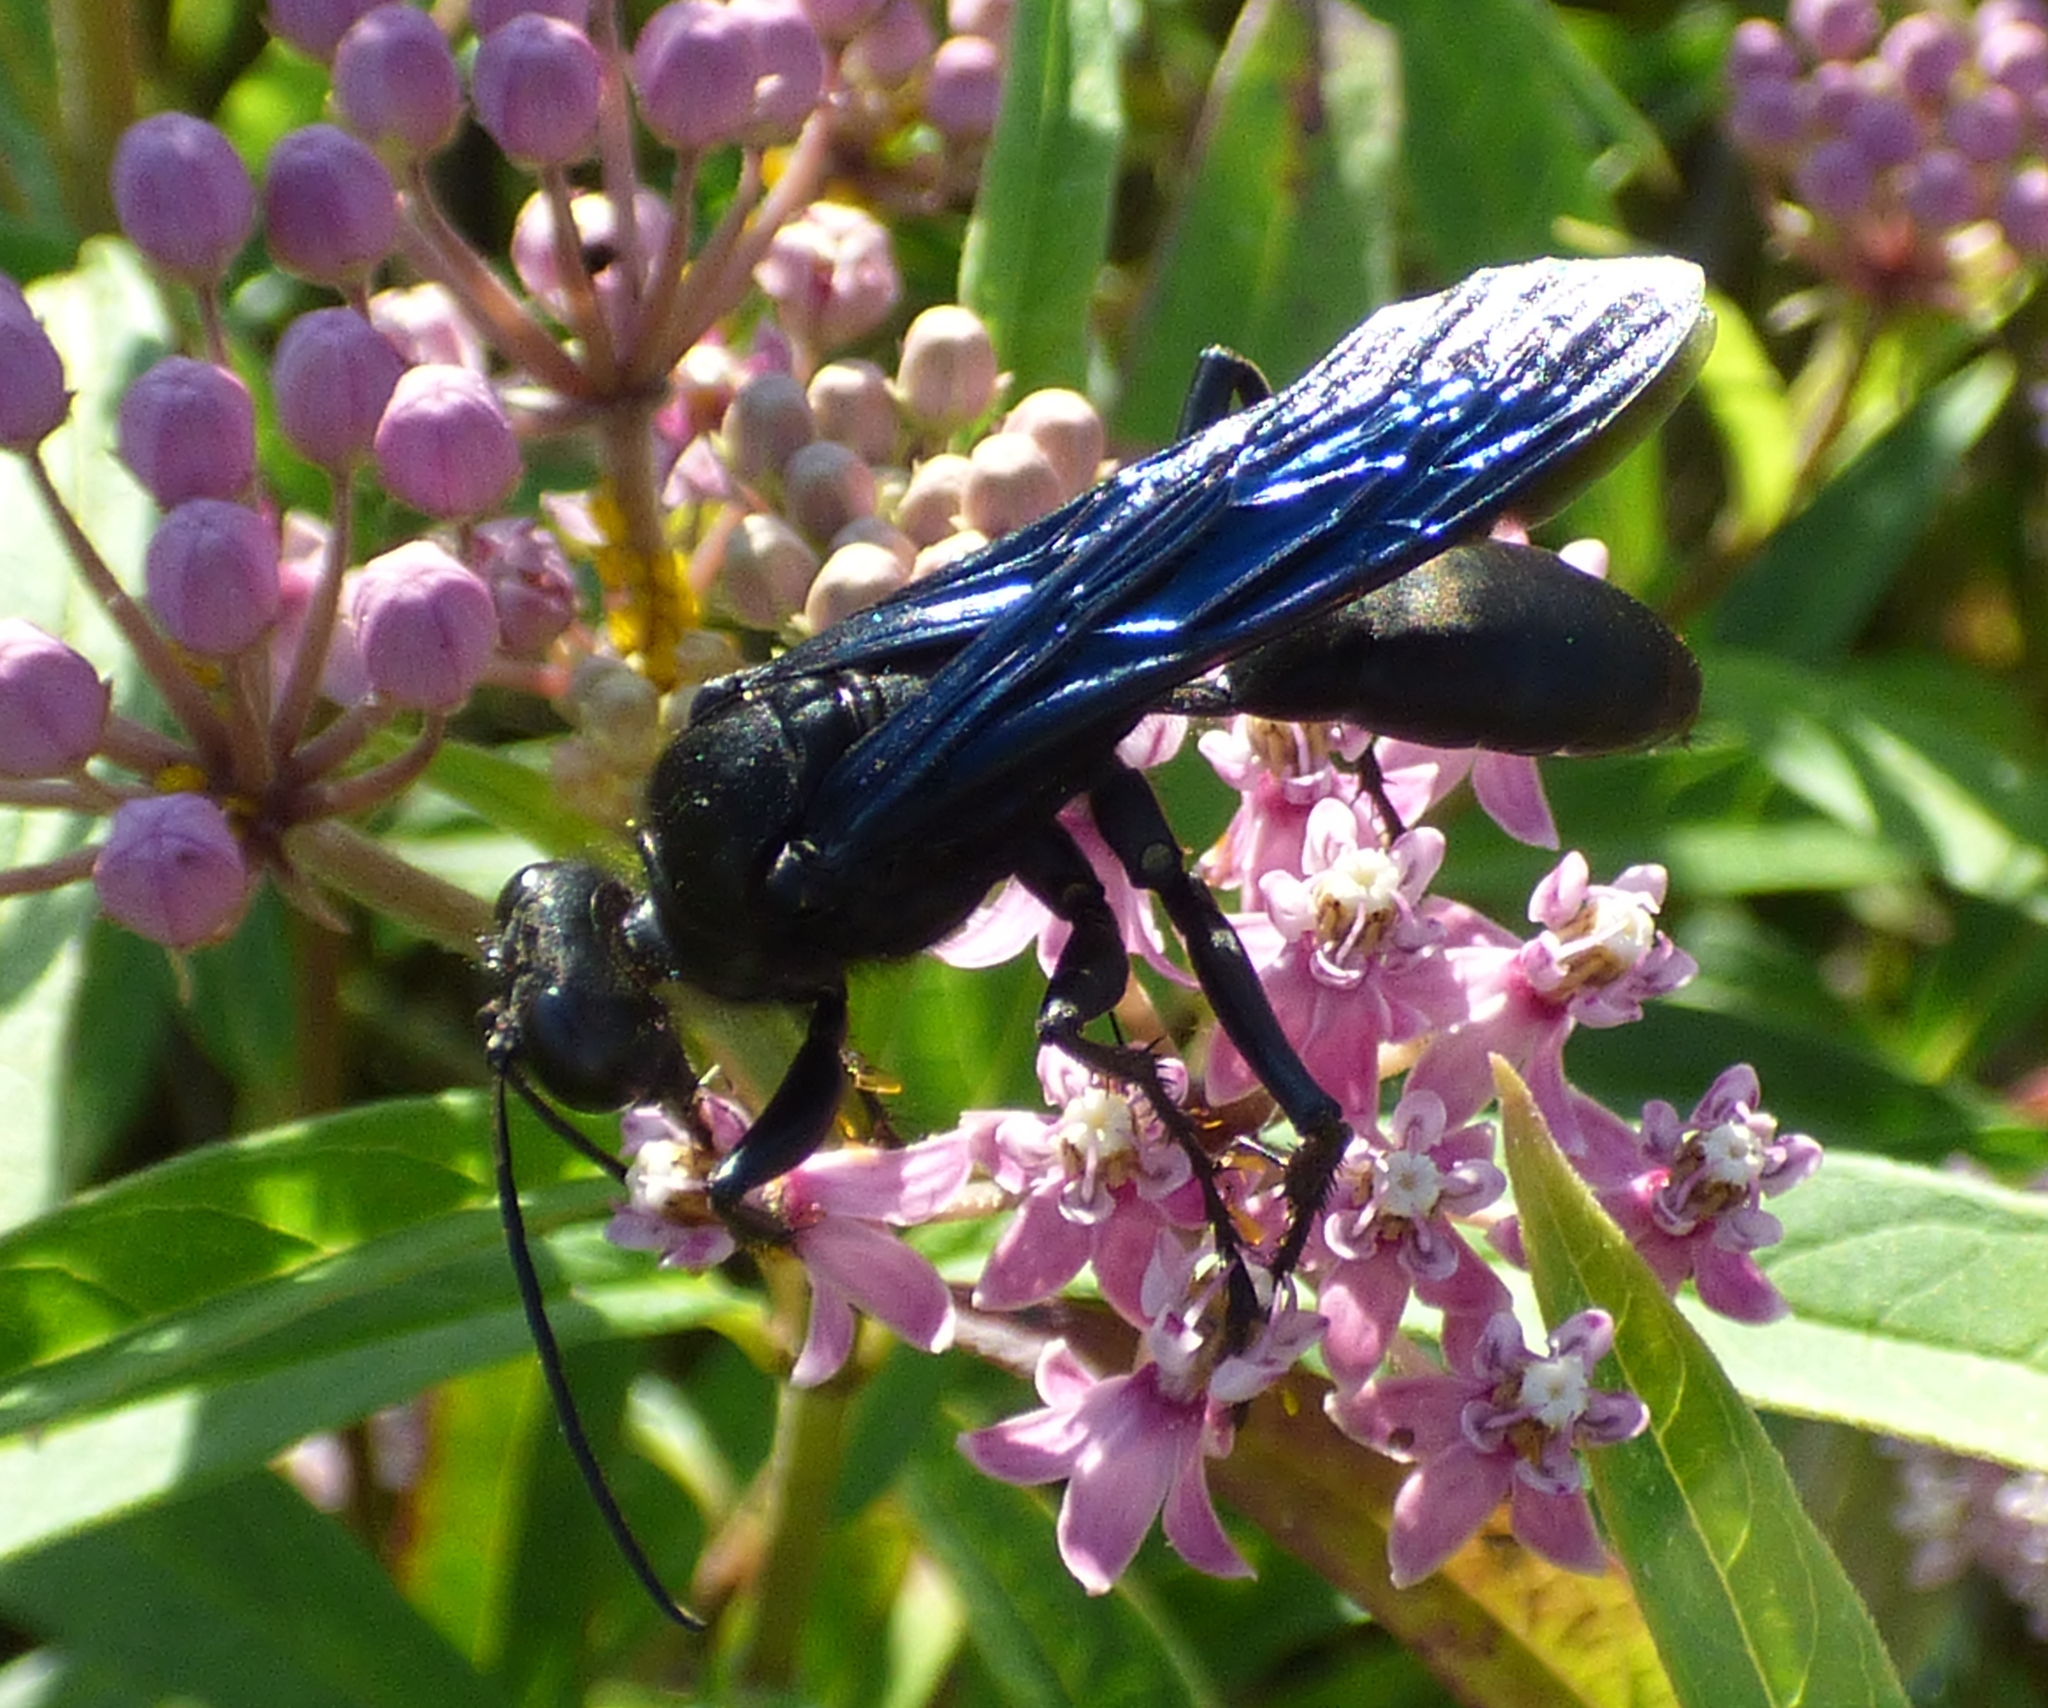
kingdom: Animalia
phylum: Arthropoda
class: Insecta
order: Hymenoptera
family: Sphecidae
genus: Sphex
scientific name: Sphex pensylvanicus
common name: Great black digger wasp
